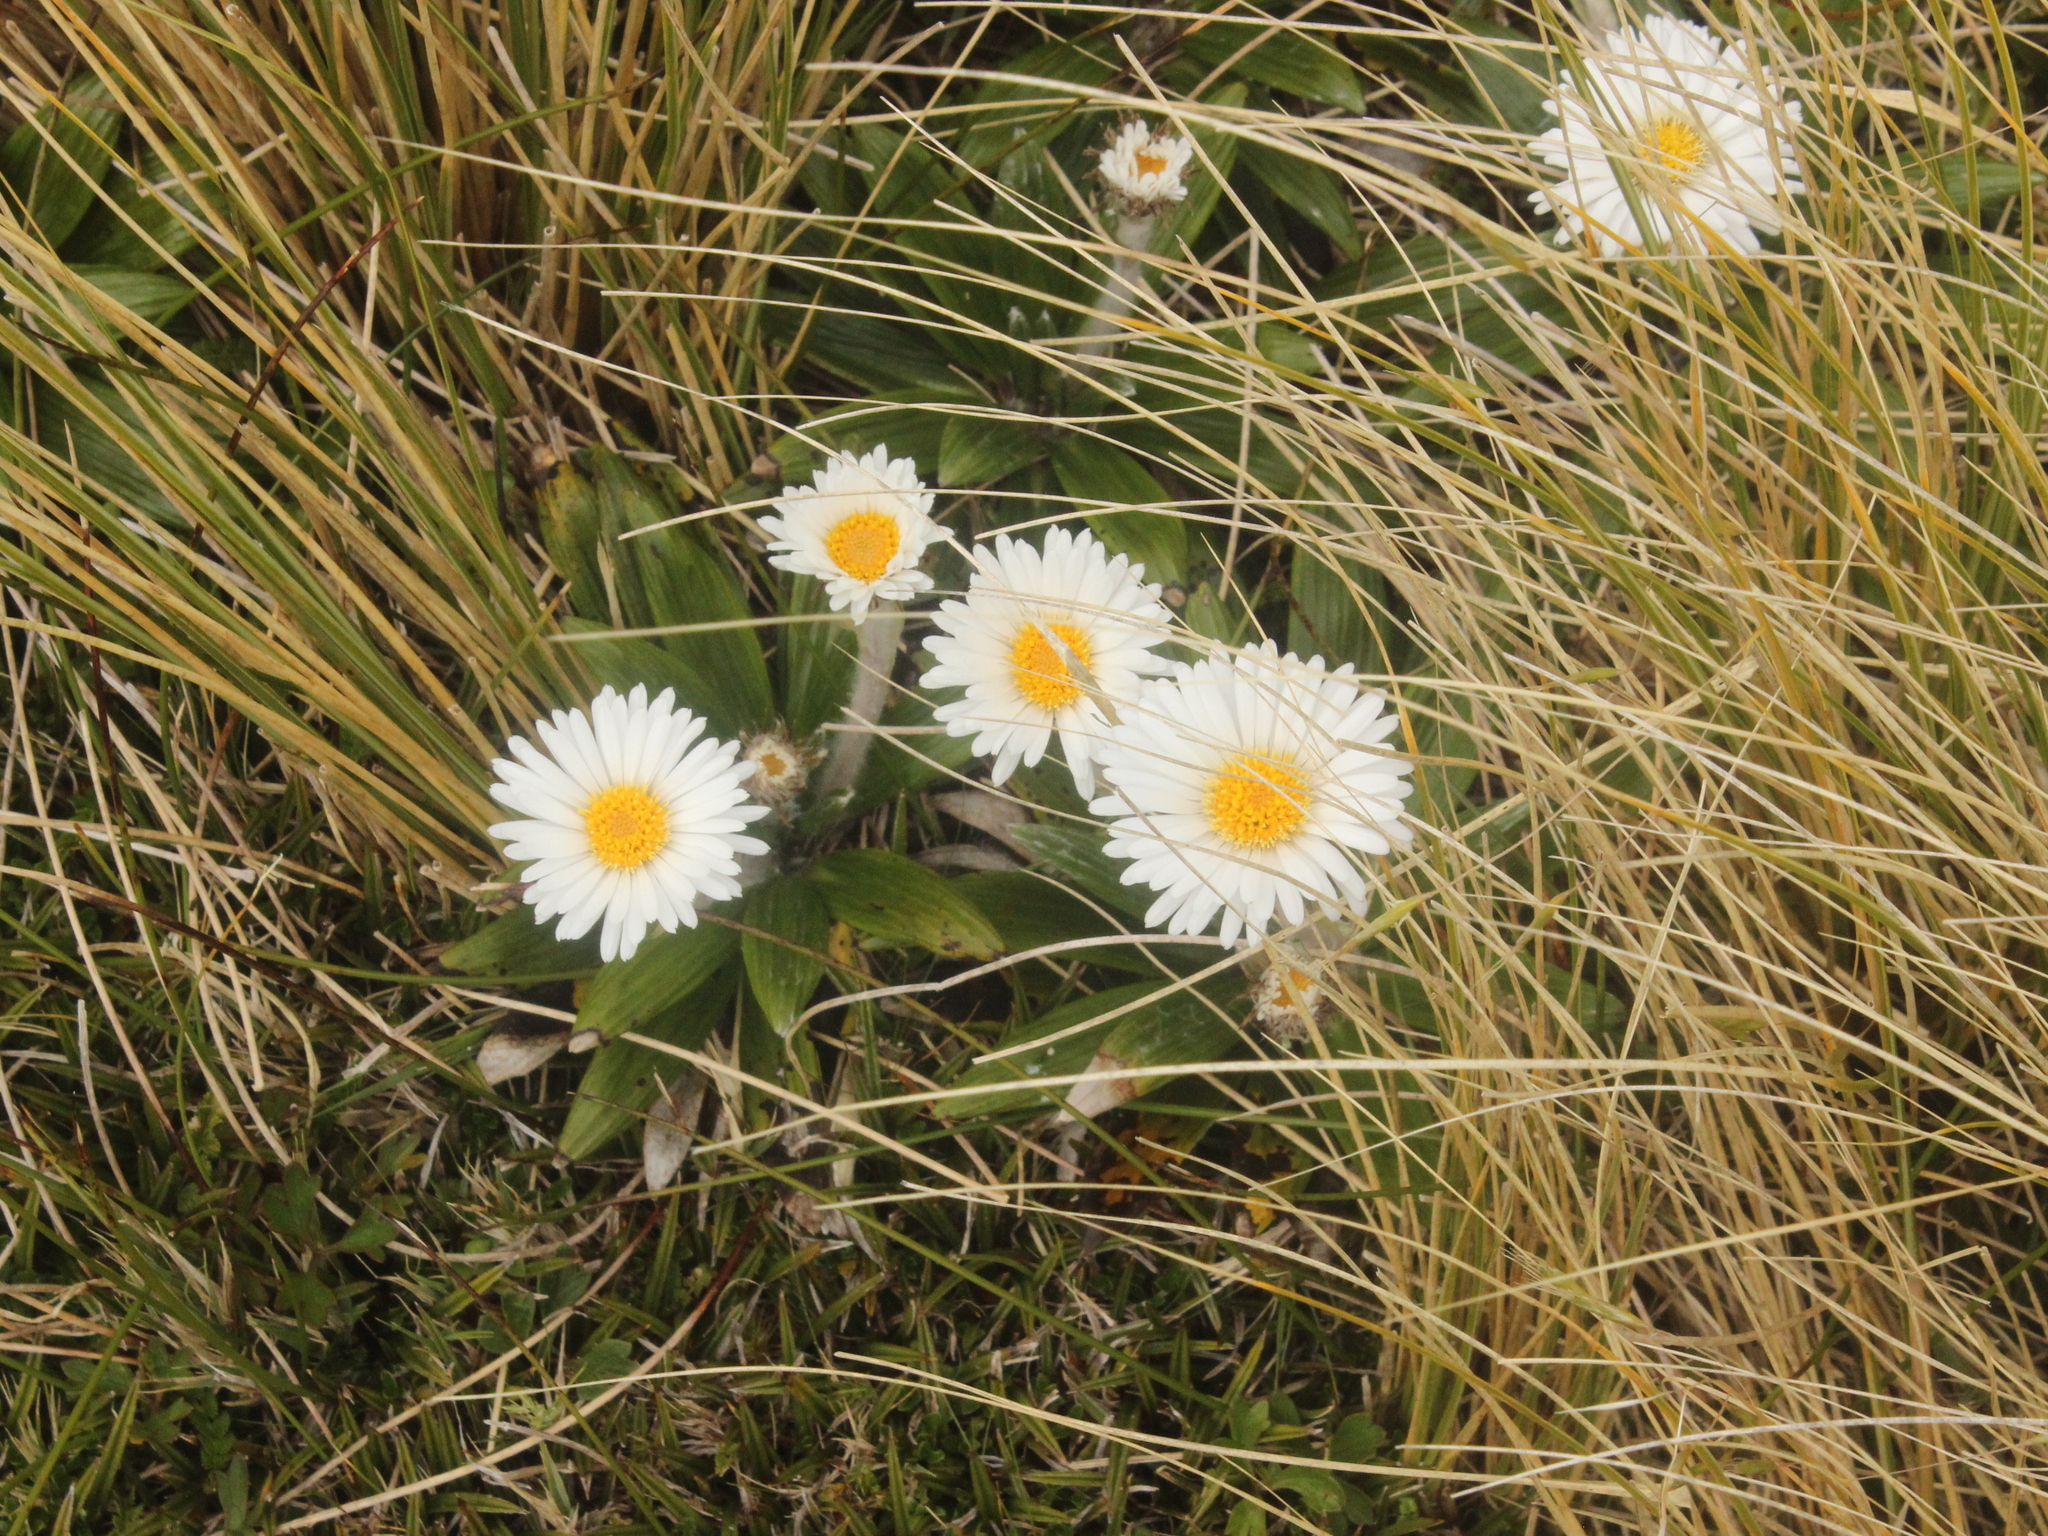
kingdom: Plantae
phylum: Tracheophyta
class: Magnoliopsida
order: Asterales
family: Asteraceae
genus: Celmisia
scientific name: Celmisia spectabilis
